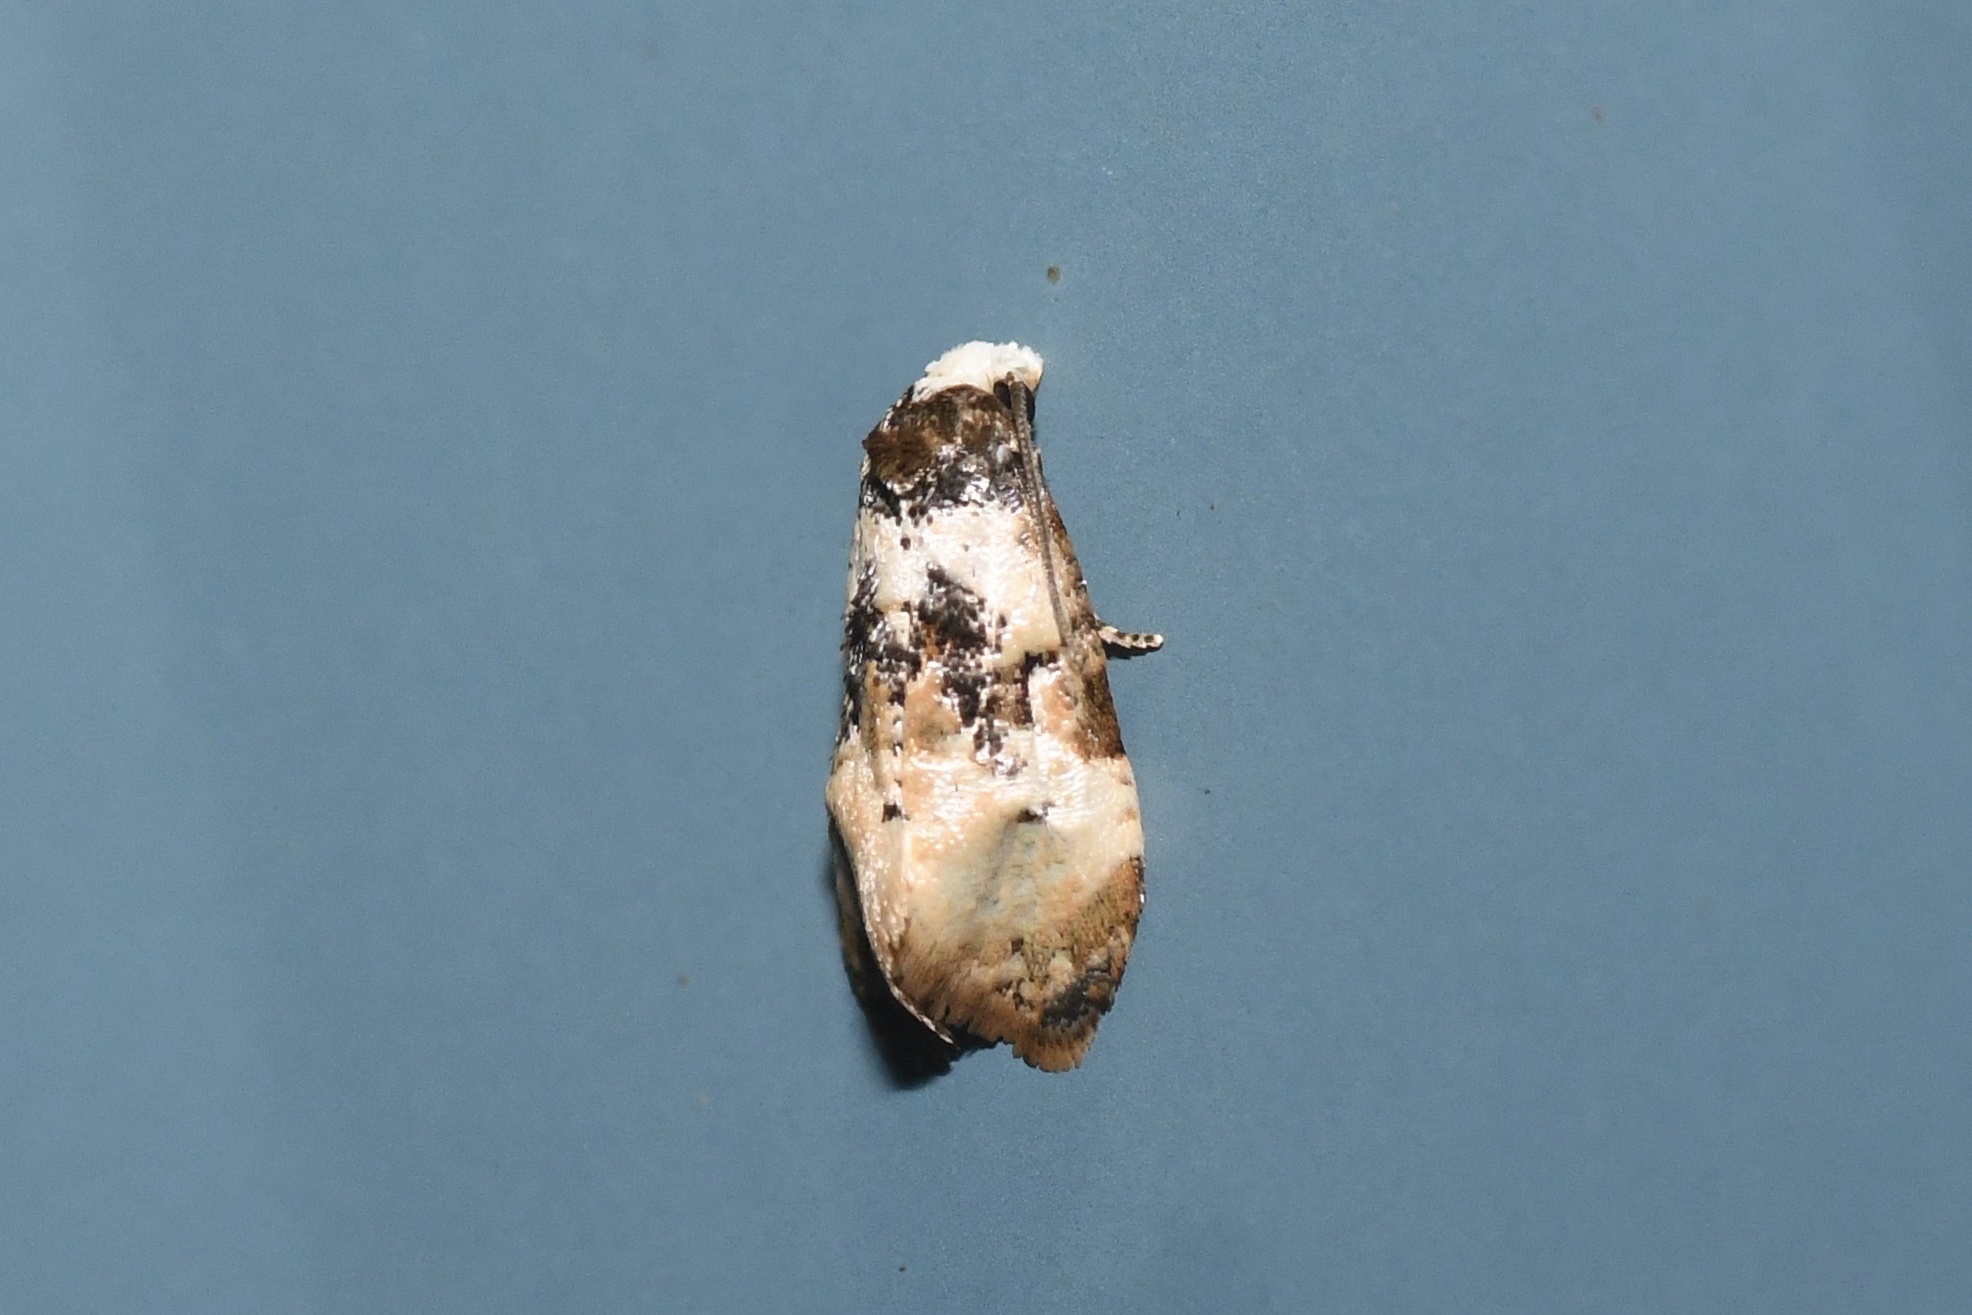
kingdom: Animalia
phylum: Arthropoda
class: Insecta
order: Lepidoptera
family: Tortricidae
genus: Phalonidia
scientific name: Phalonidia memoranda
